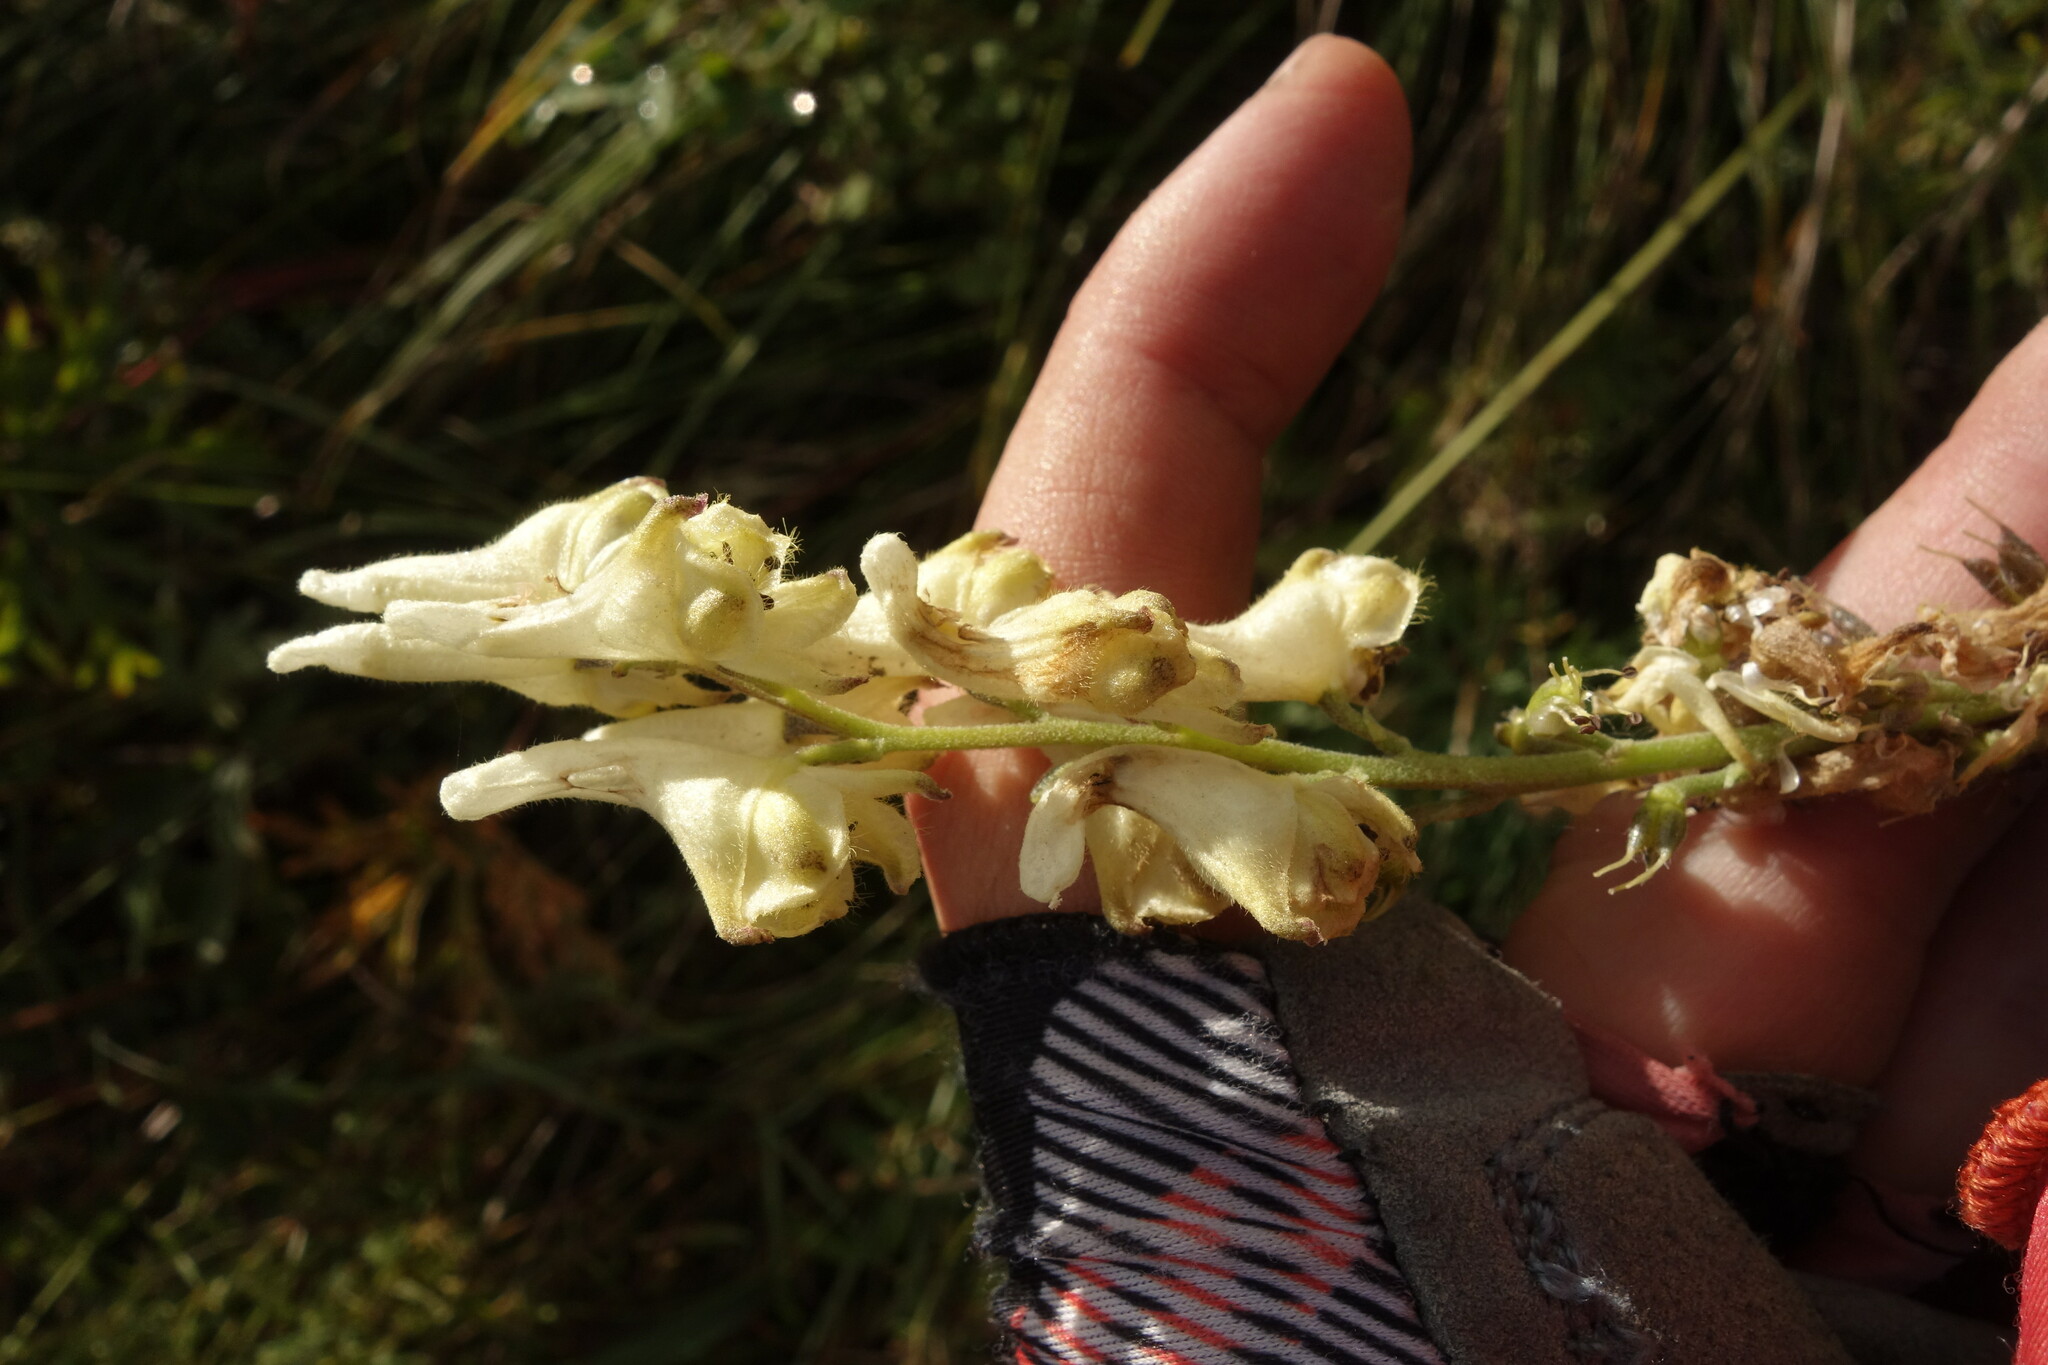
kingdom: Plantae
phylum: Tracheophyta
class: Magnoliopsida
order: Ranunculales
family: Ranunculaceae
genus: Aconitum
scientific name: Aconitum barbatum
